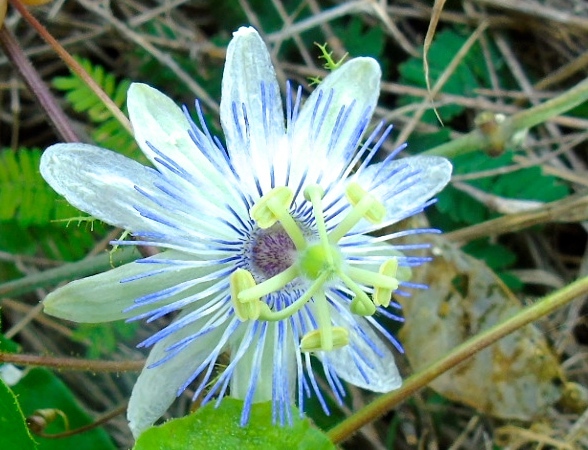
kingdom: Plantae
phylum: Tracheophyta
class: Magnoliopsida
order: Malpighiales
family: Passifloraceae
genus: Passiflora
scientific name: Passiflora foetida
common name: Fetid passionflower
